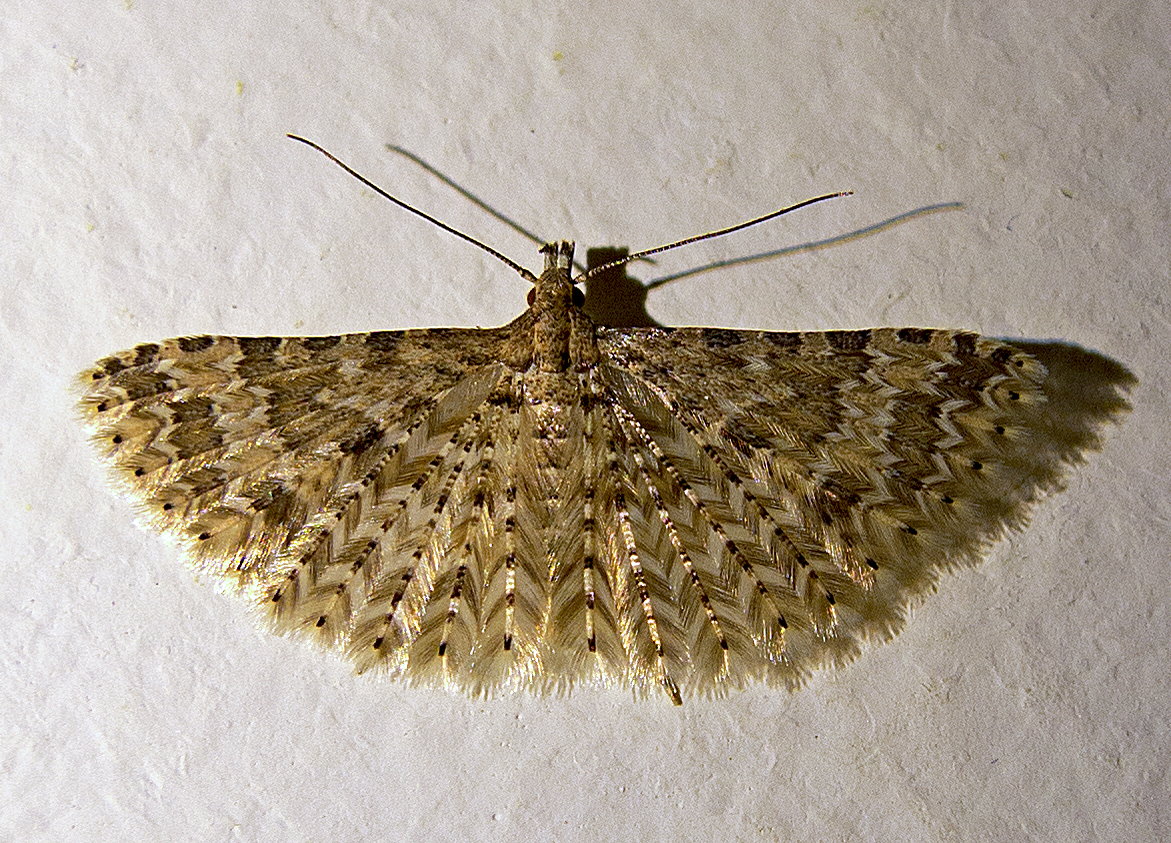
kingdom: Animalia
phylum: Arthropoda
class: Insecta
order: Lepidoptera
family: Alucitidae
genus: Alucita
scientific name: Alucita
